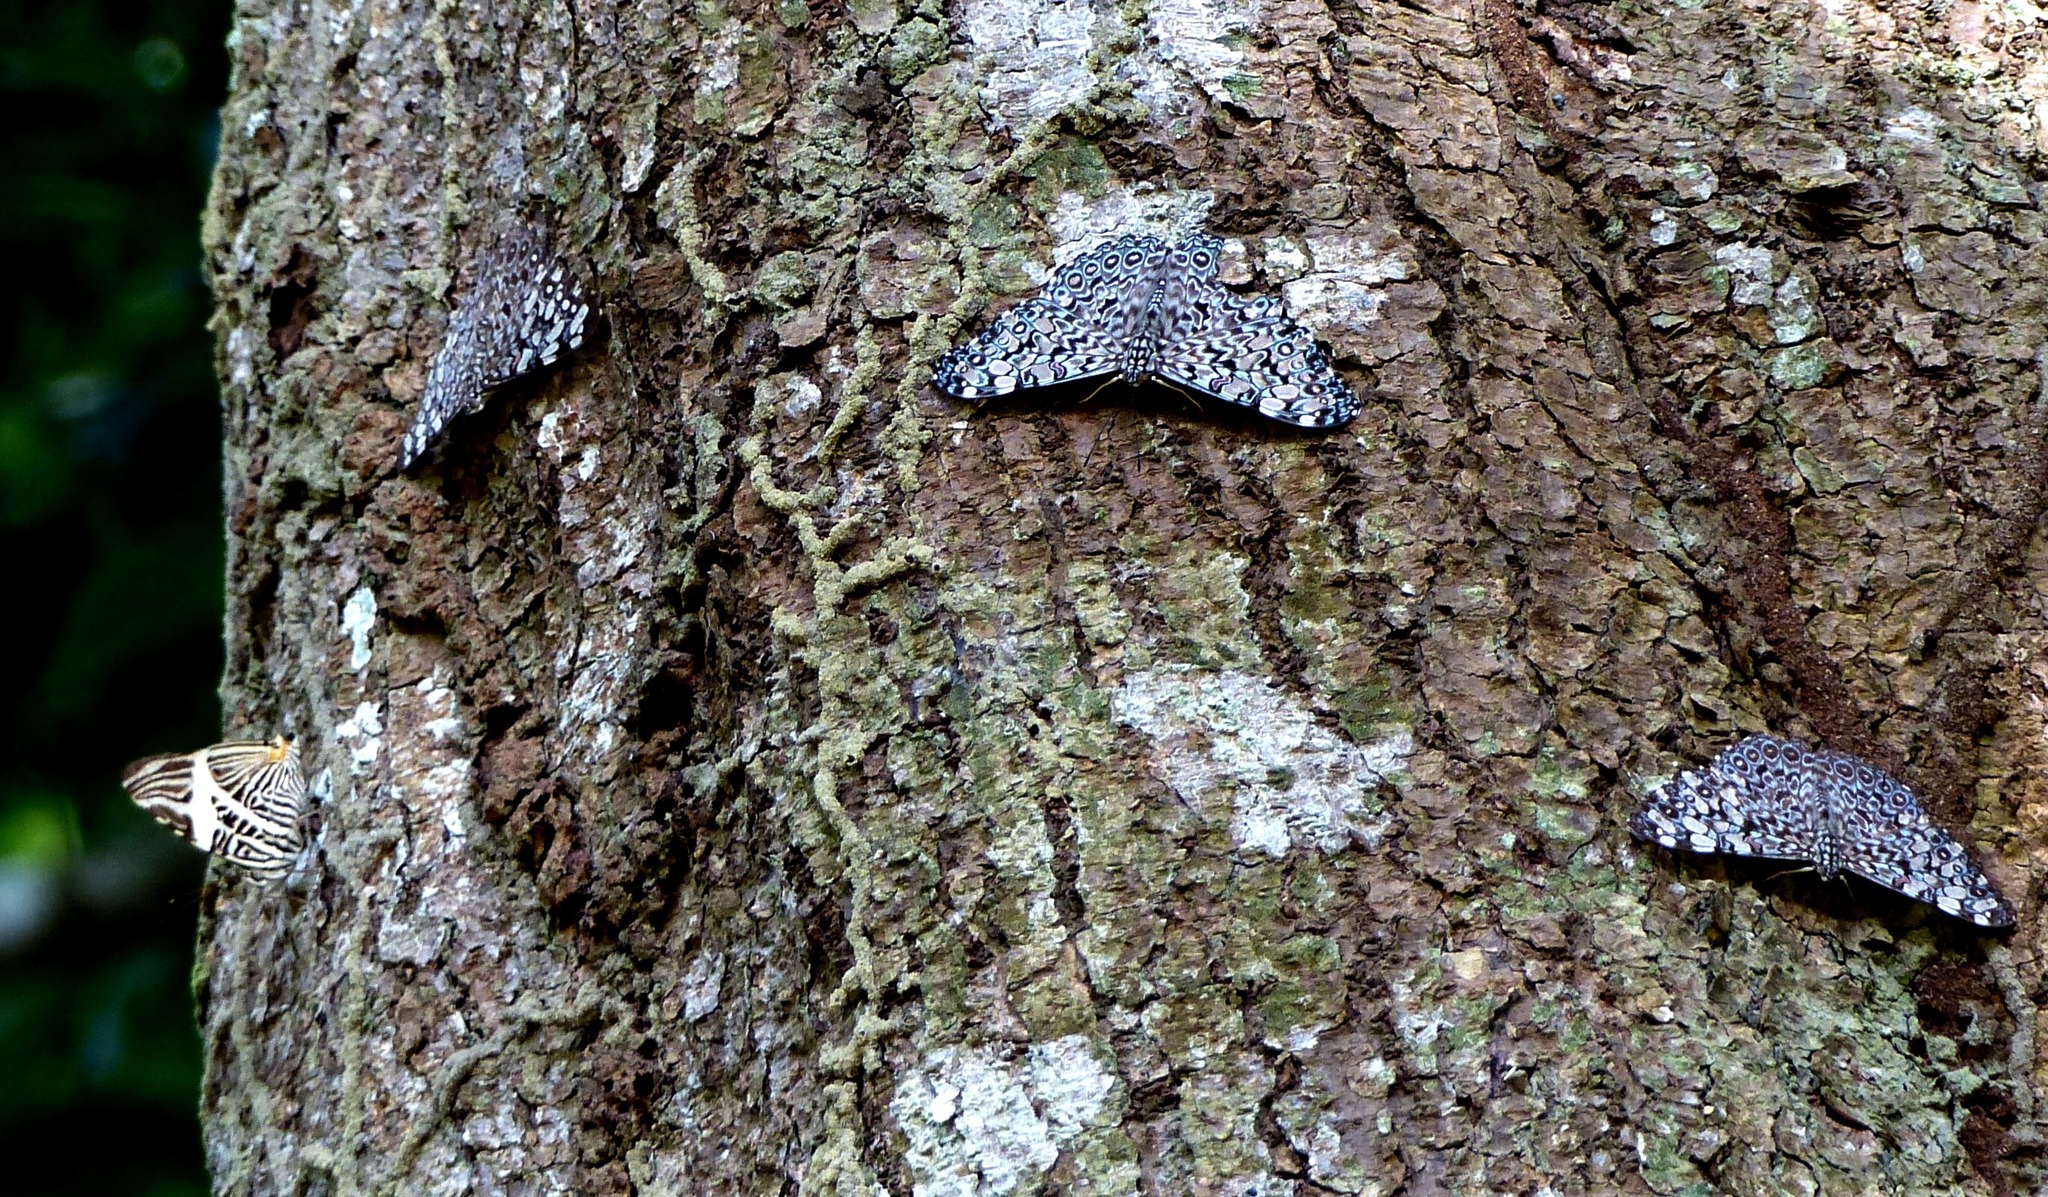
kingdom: Animalia
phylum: Arthropoda
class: Insecta
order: Lepidoptera
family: Nymphalidae
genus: Hamadryas
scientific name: Hamadryas feronia
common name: Variable cracker
